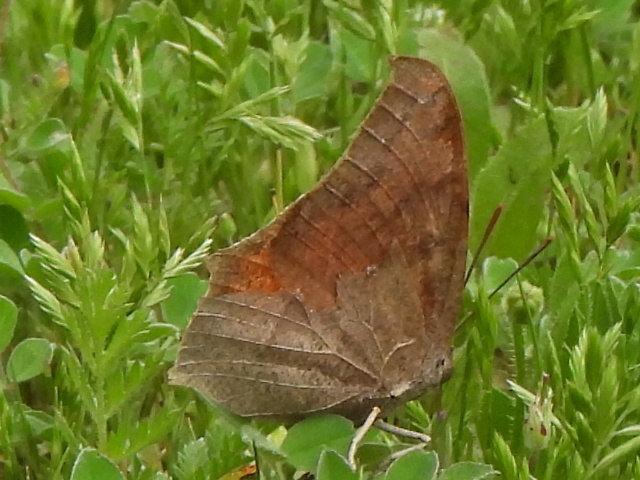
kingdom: Animalia
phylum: Arthropoda
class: Insecta
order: Lepidoptera
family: Nymphalidae
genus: Anaea
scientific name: Anaea andria
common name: Goatweed leafwing
